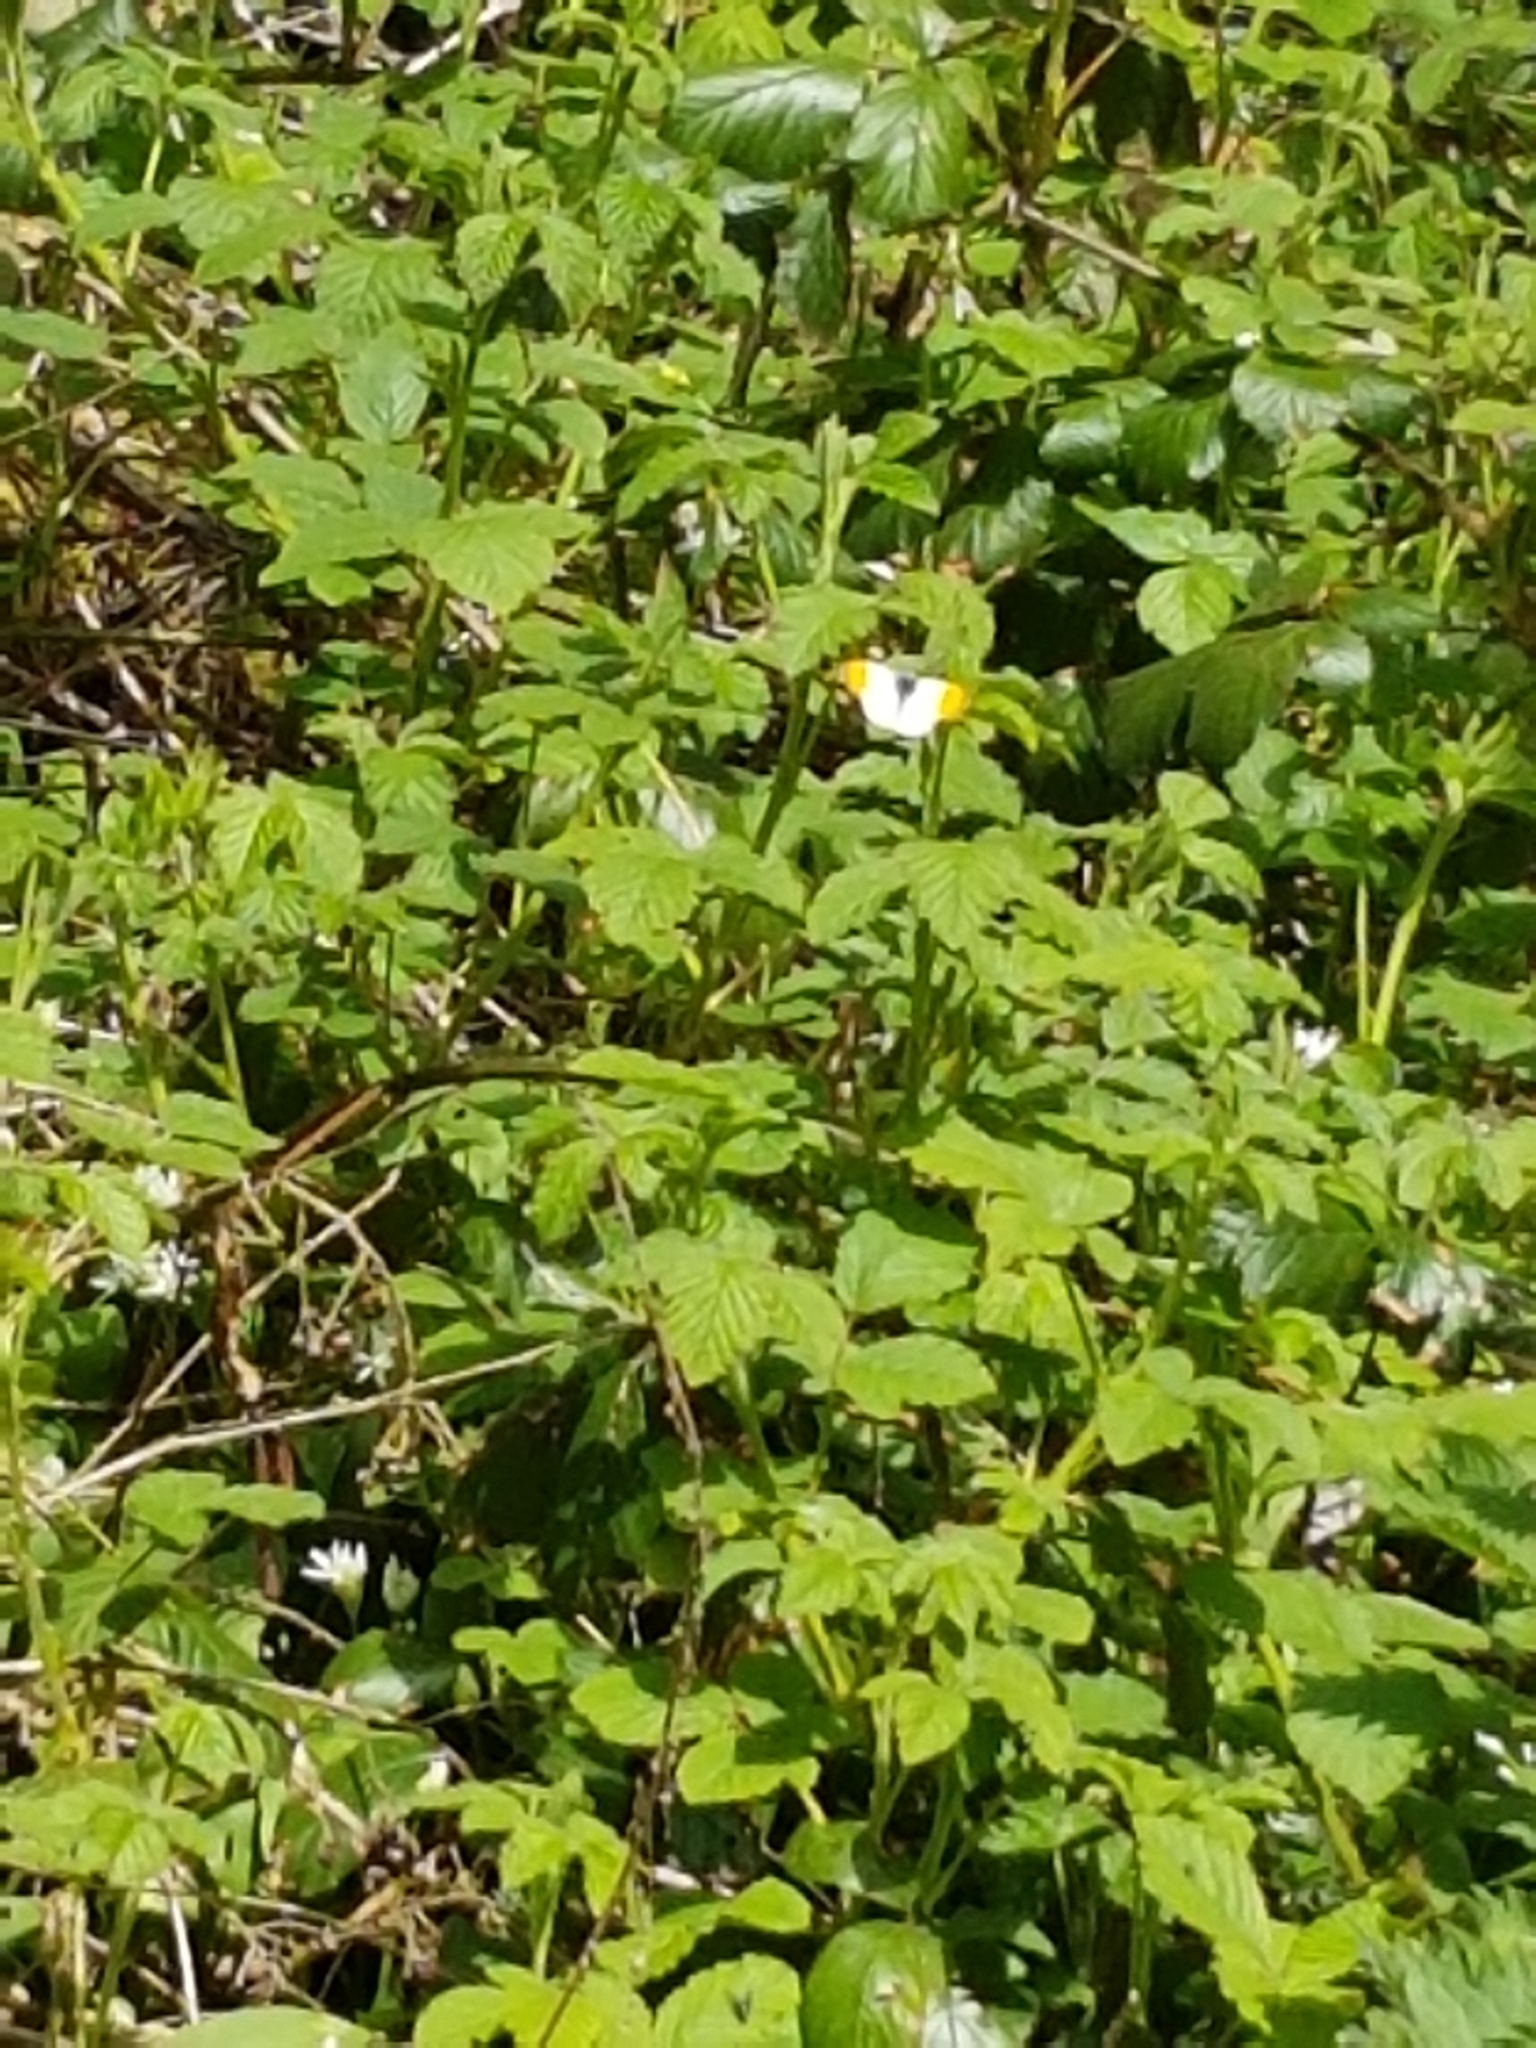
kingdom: Animalia
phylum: Arthropoda
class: Insecta
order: Lepidoptera
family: Pieridae
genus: Anthocharis
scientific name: Anthocharis cardamines
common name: Orange-tip
